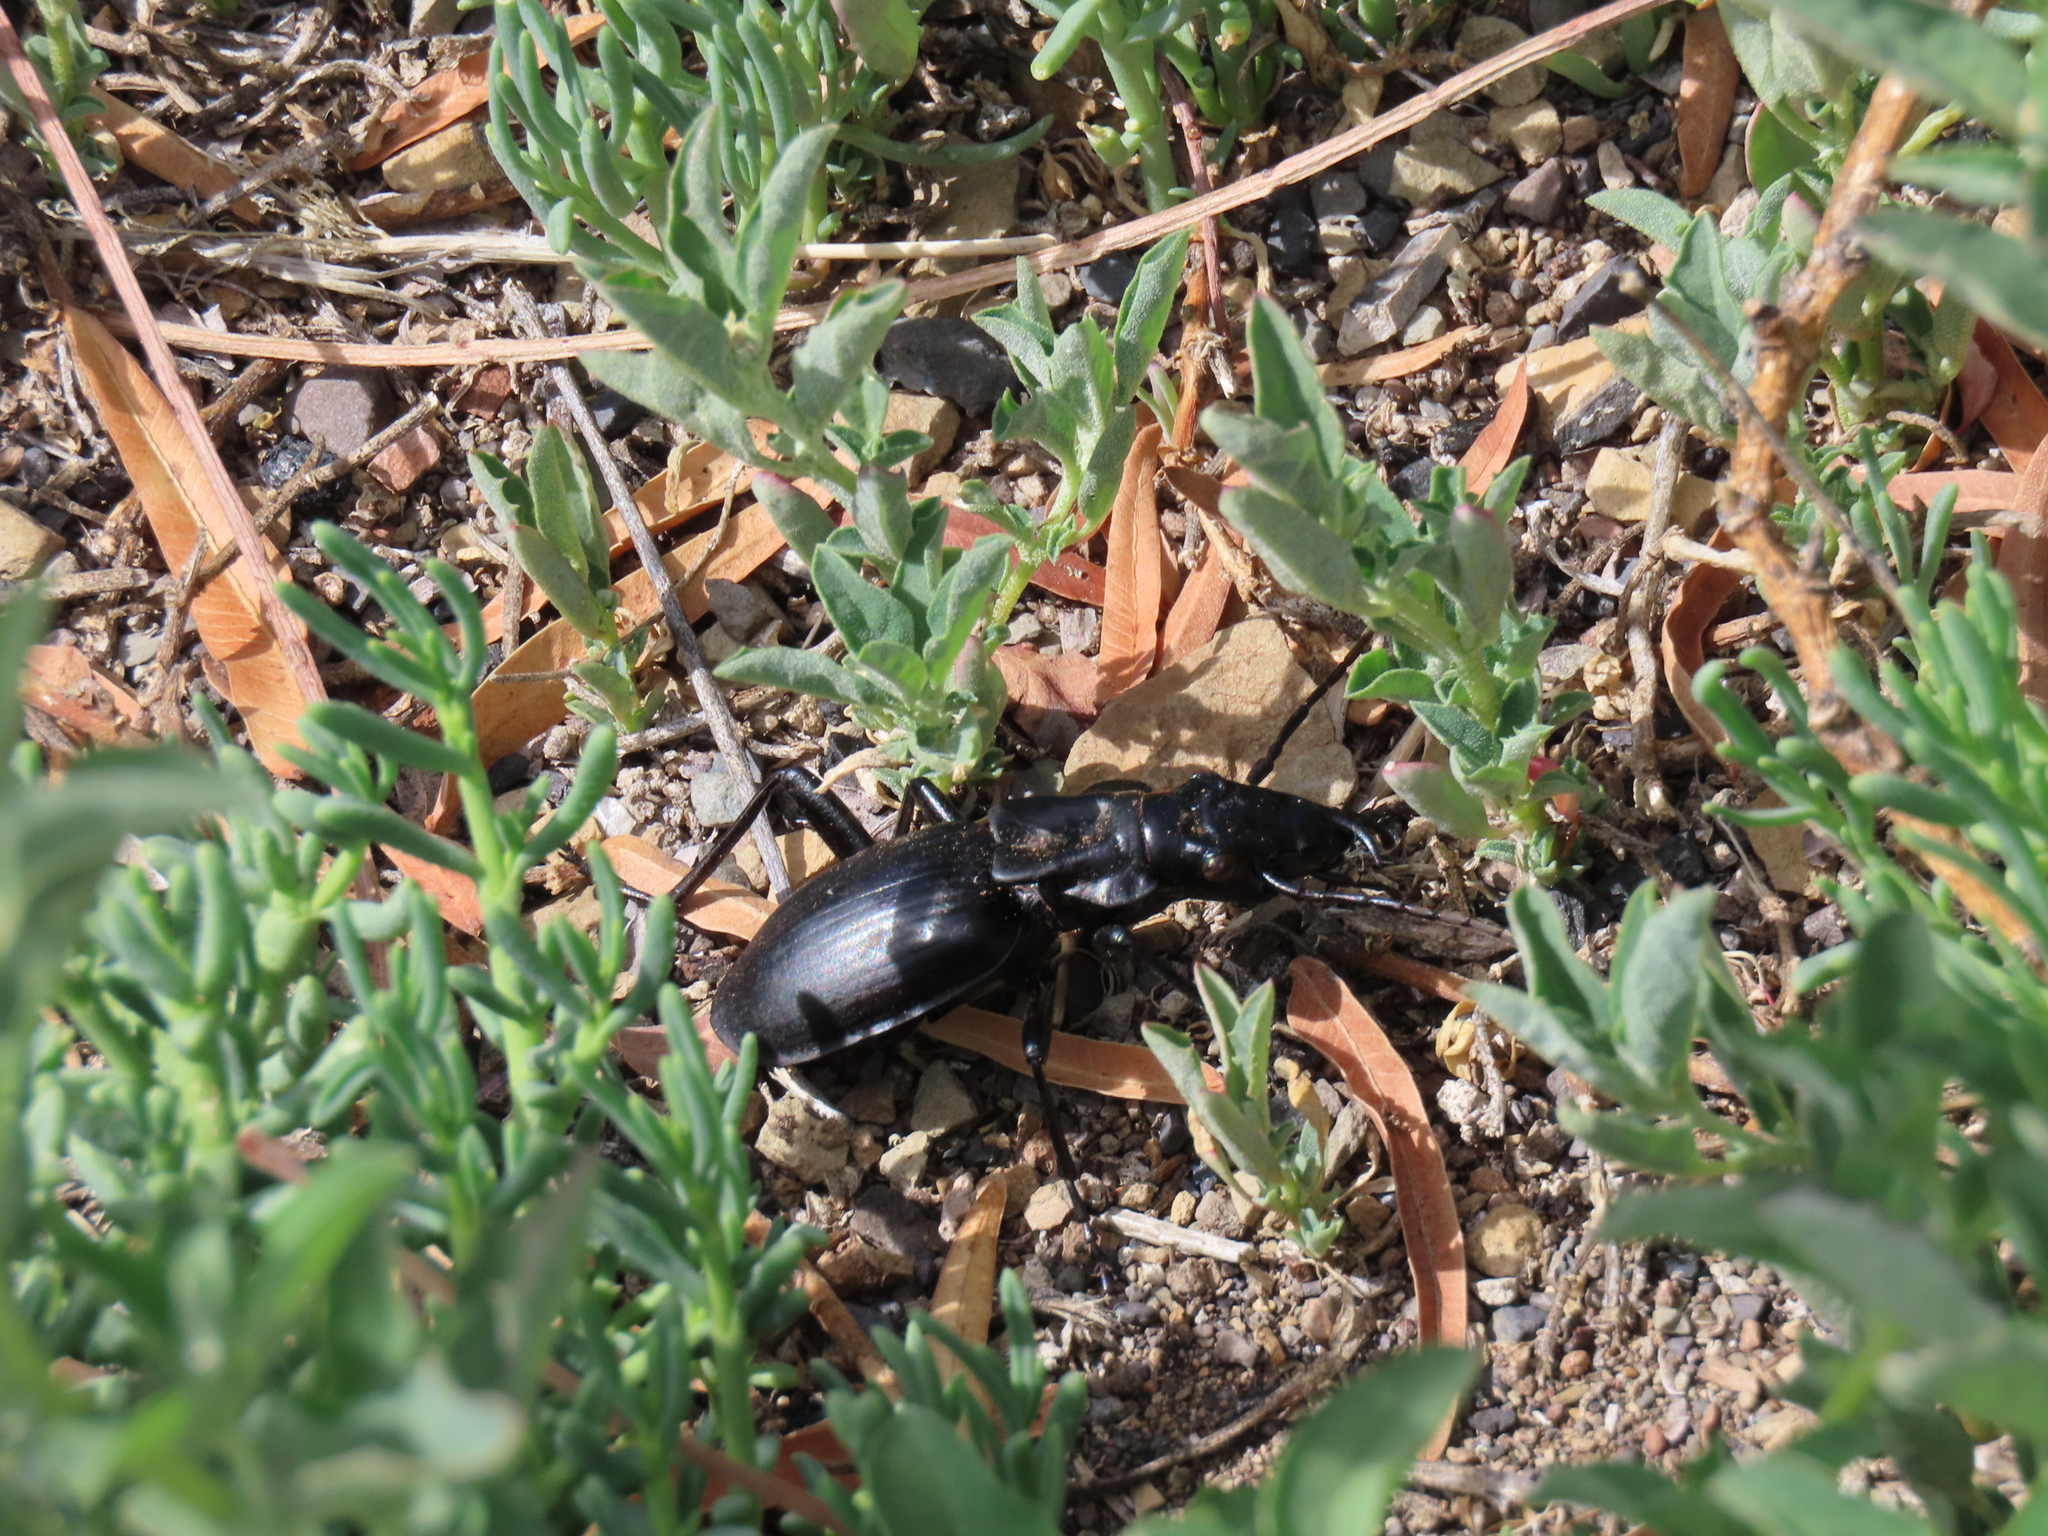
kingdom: Animalia
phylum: Arthropoda
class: Insecta
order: Coleoptera
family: Carabidae
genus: Anthia
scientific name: Anthia maxillosa
